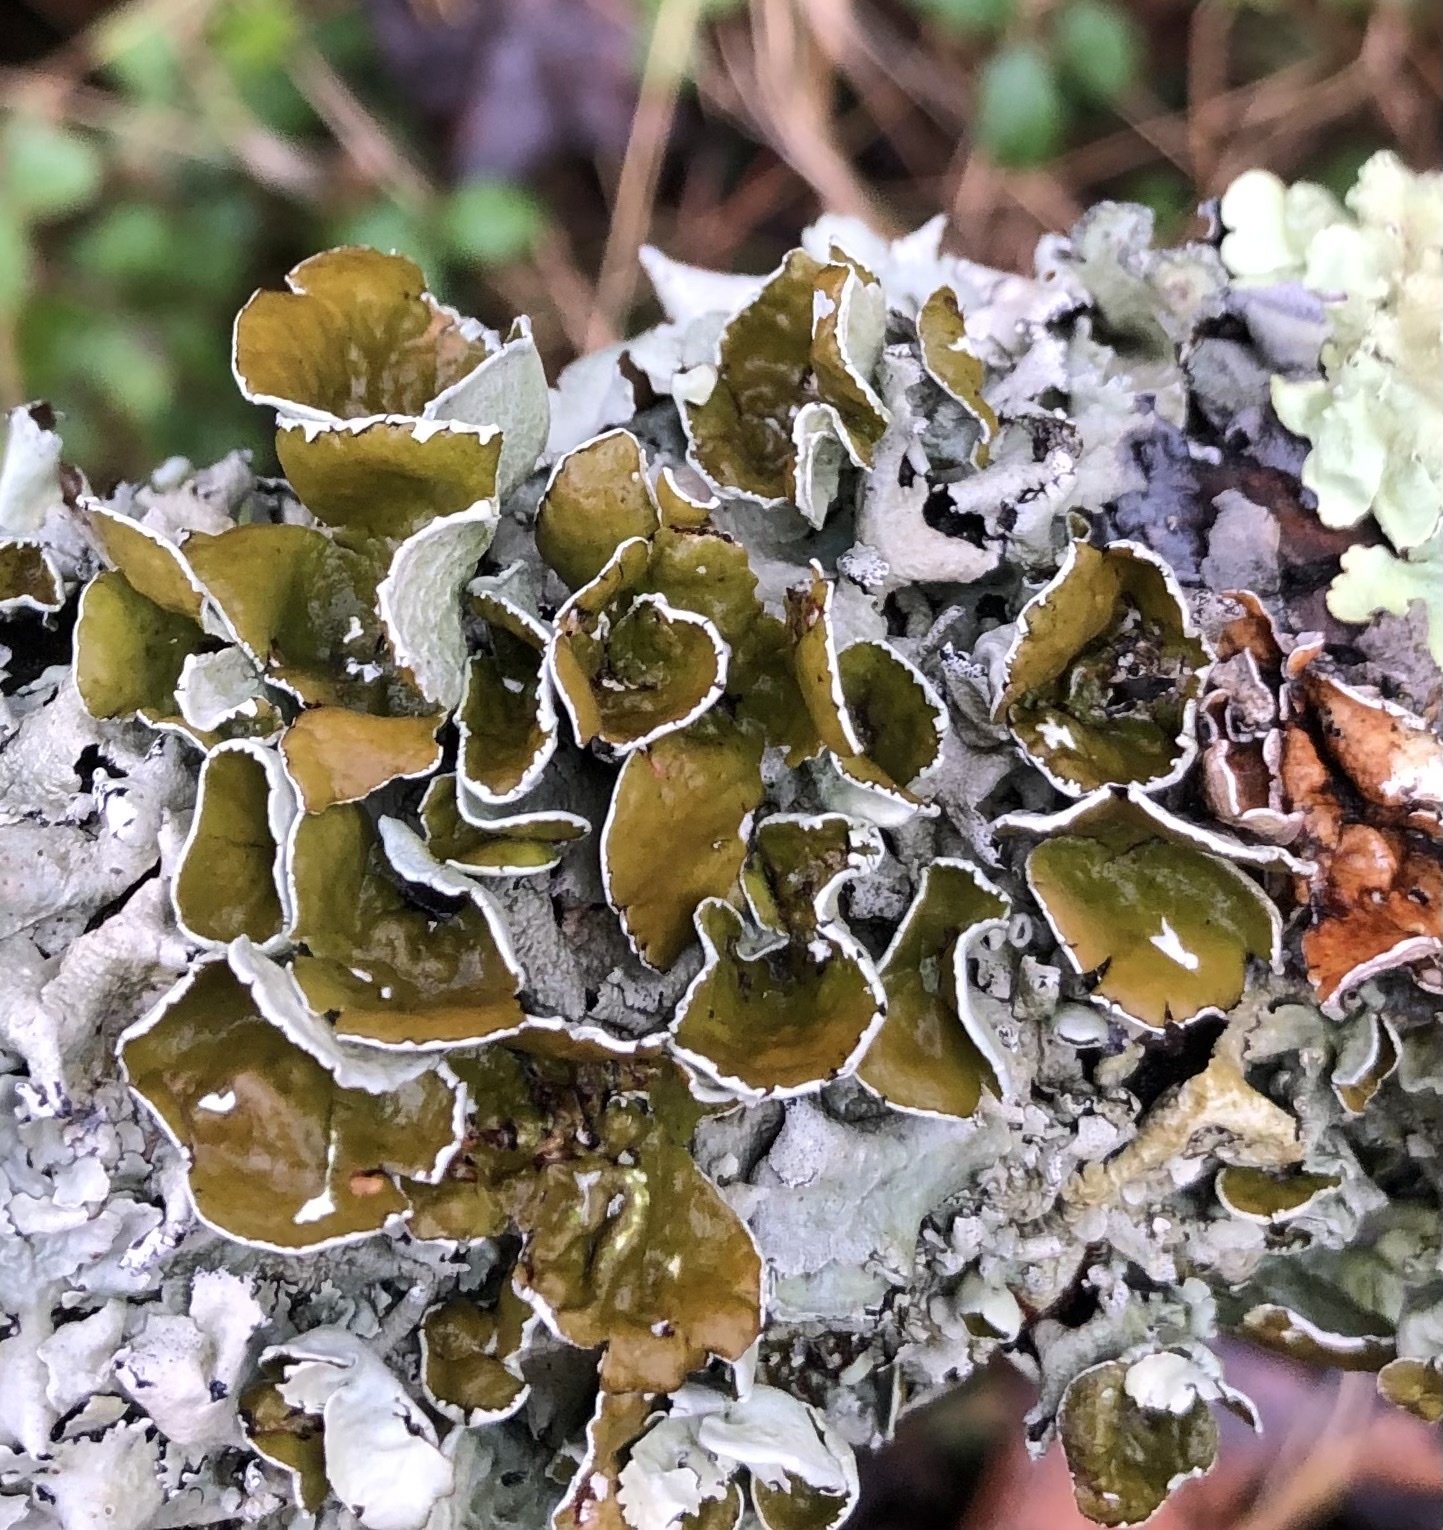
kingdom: Fungi
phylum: Ascomycota
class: Lecanoromycetes
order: Lecanorales
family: Parmeliaceae
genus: Parmotrema
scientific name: Parmotrema perforatum
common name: Perforated ruffle lichen
